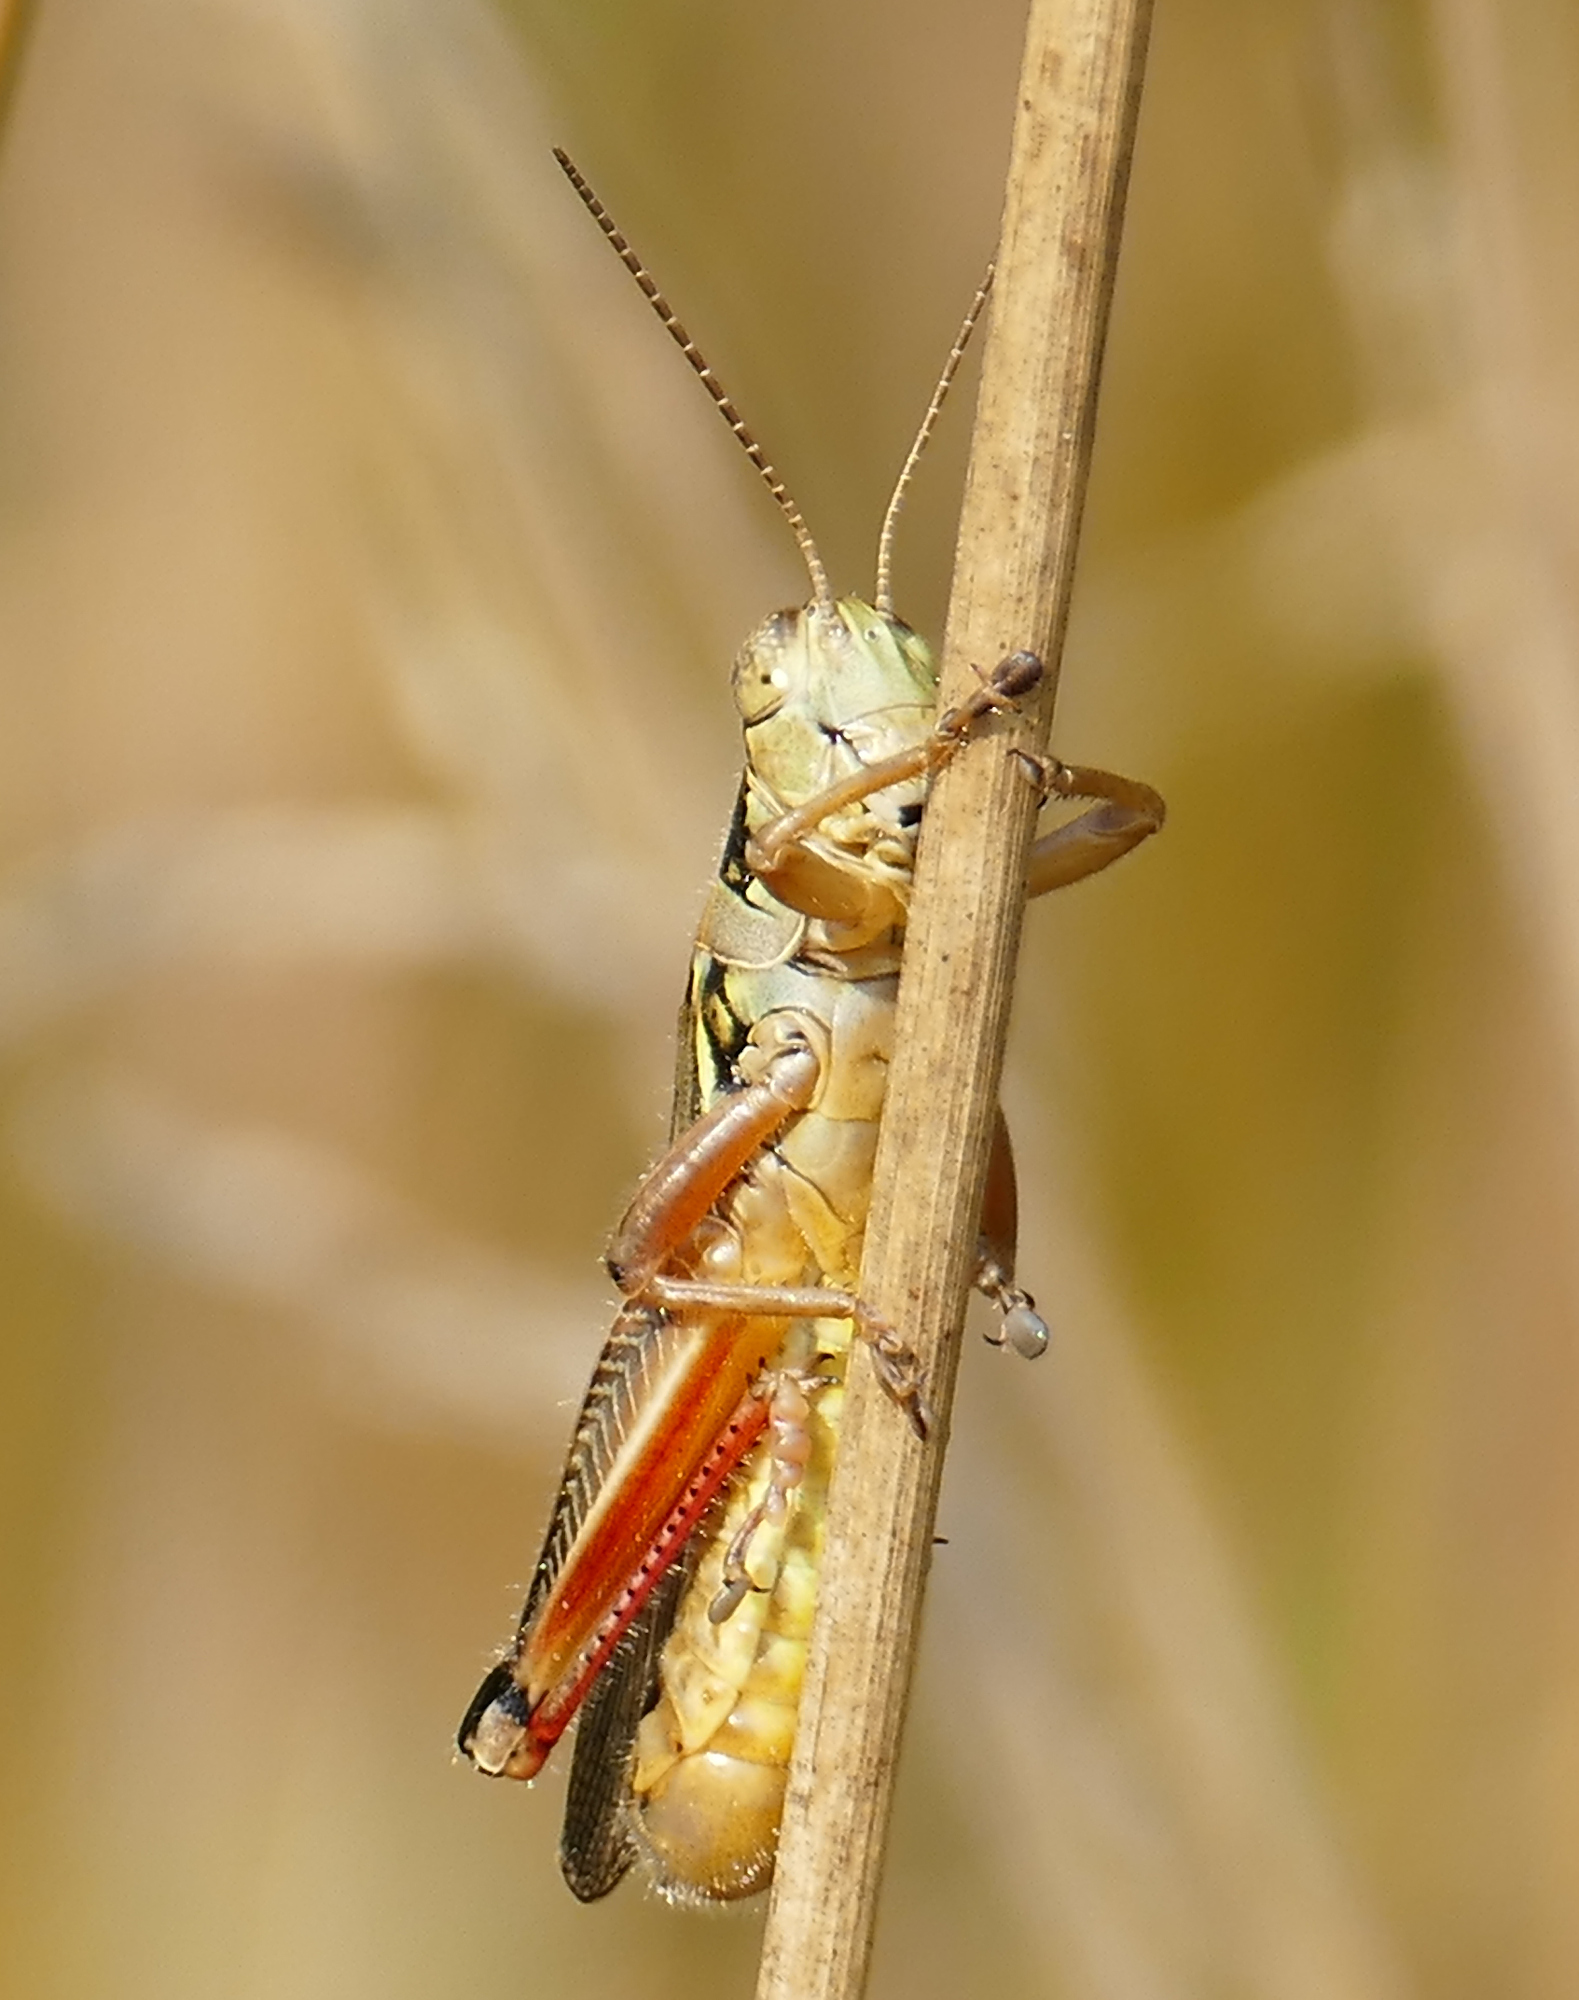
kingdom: Animalia
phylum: Arthropoda
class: Insecta
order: Orthoptera
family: Acrididae
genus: Melanoplus
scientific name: Melanoplus femurrubrum
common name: Red-legged grasshopper
